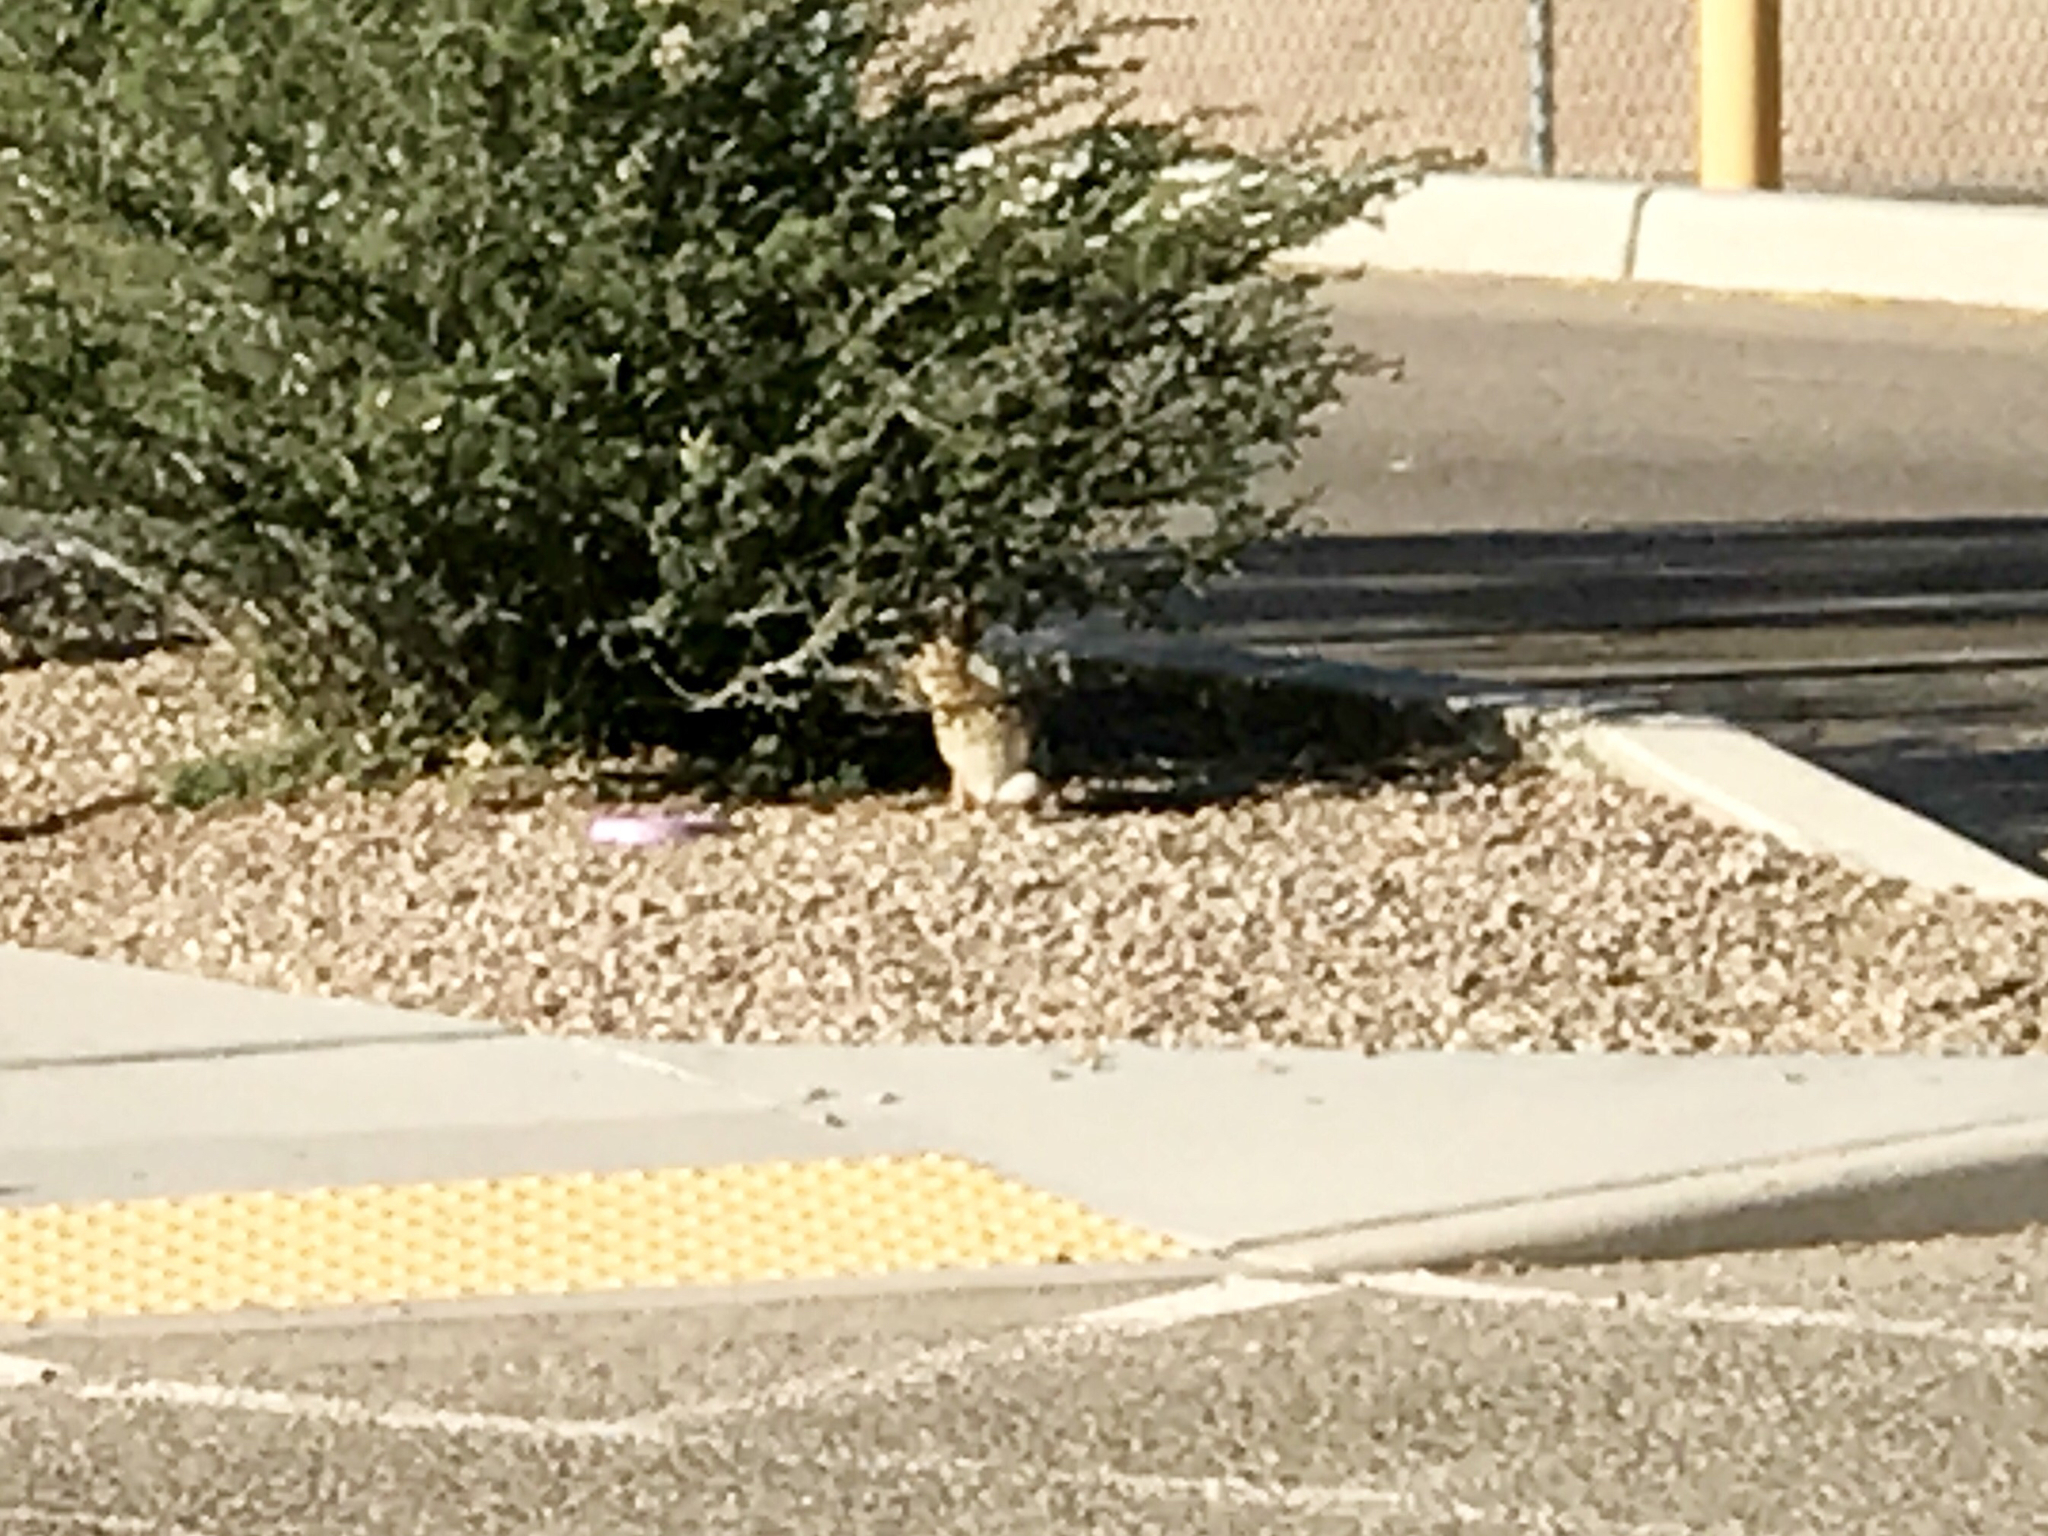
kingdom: Animalia
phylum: Chordata
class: Mammalia
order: Lagomorpha
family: Leporidae
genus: Sylvilagus
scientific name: Sylvilagus audubonii
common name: Desert cottontail
